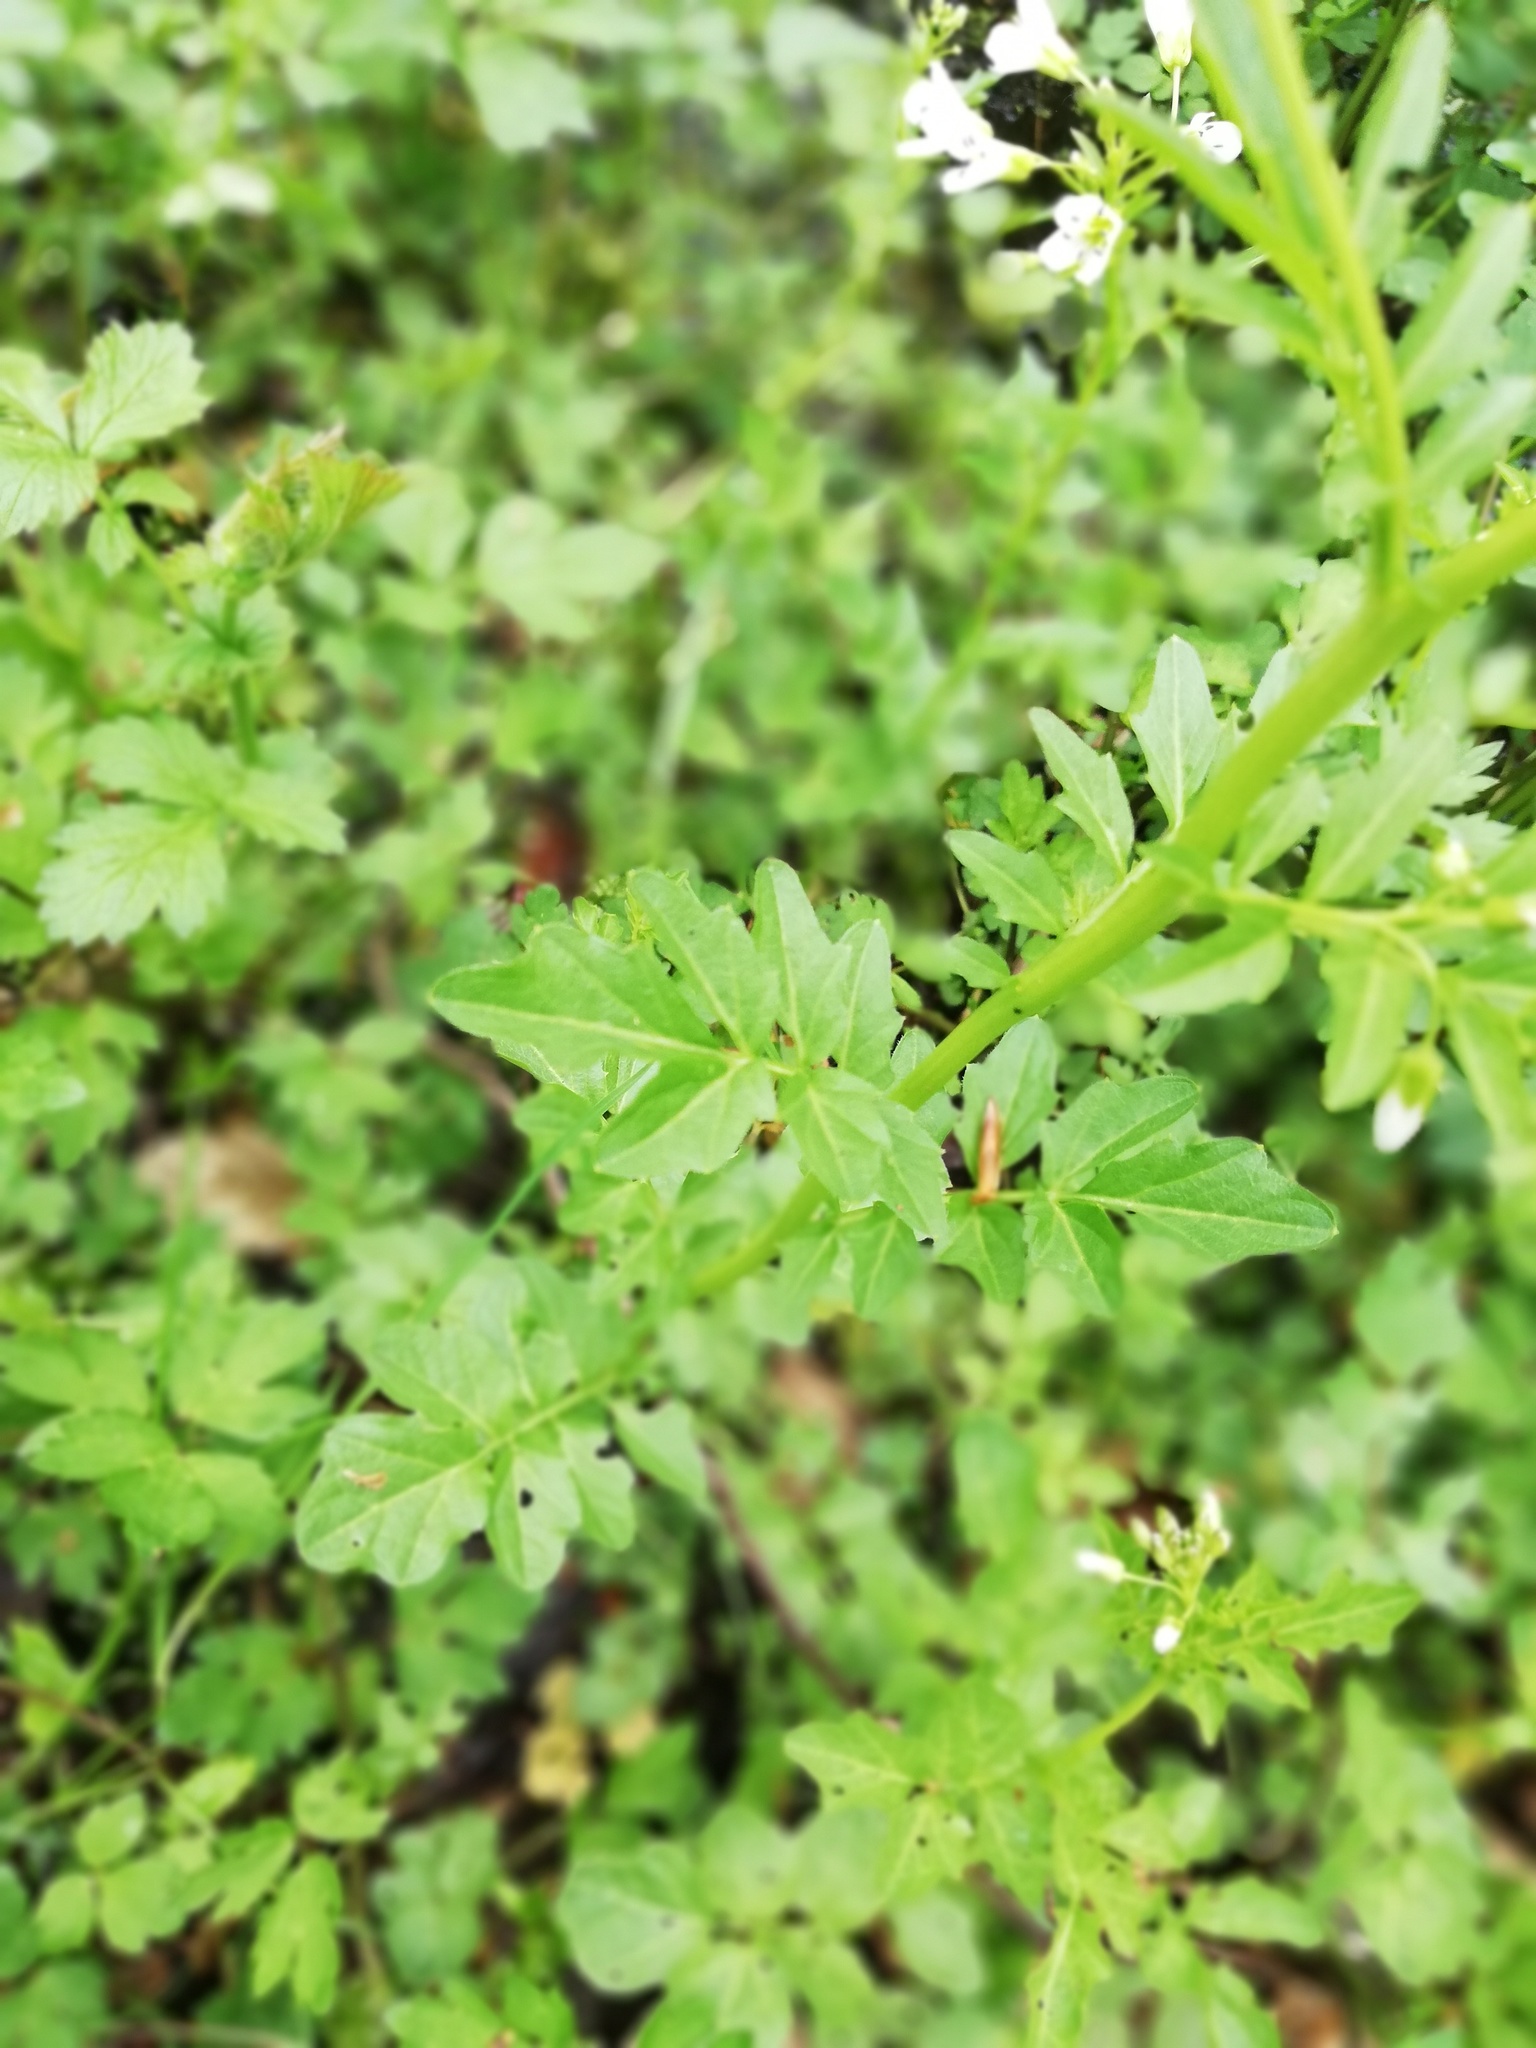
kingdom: Plantae
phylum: Tracheophyta
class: Magnoliopsida
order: Brassicales
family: Brassicaceae
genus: Cardamine
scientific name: Cardamine amara
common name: Large bitter-cress
